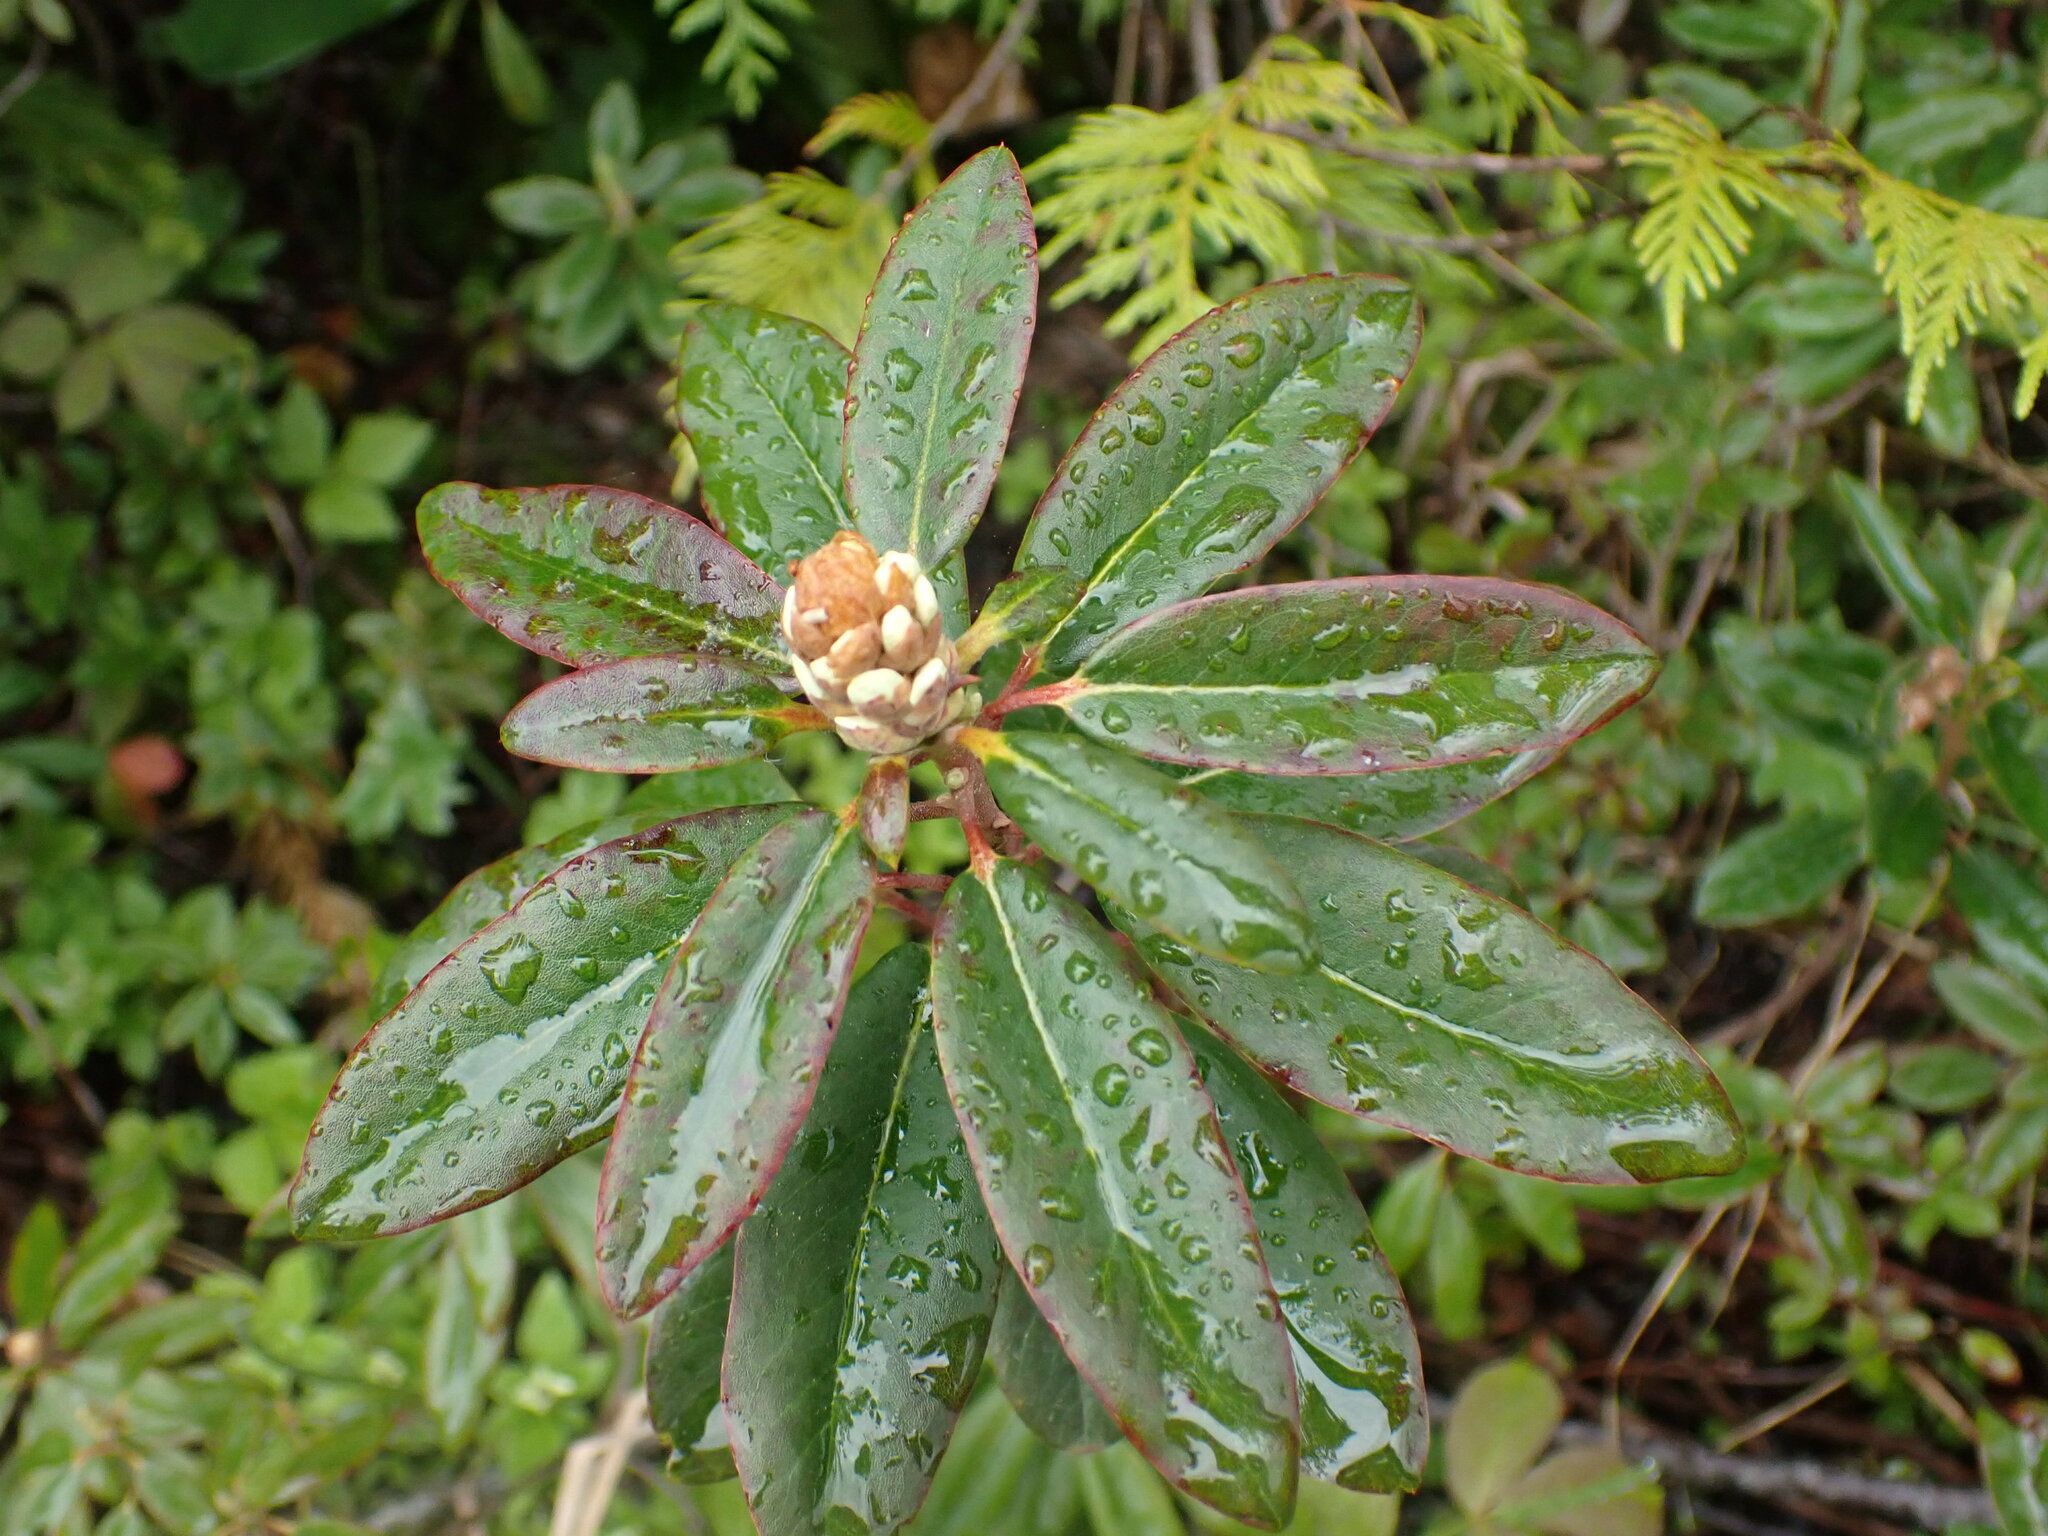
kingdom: Plantae
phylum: Tracheophyta
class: Magnoliopsida
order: Ericales
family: Ericaceae
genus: Rhododendron
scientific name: Rhododendron columbianum
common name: Western labrador tea
